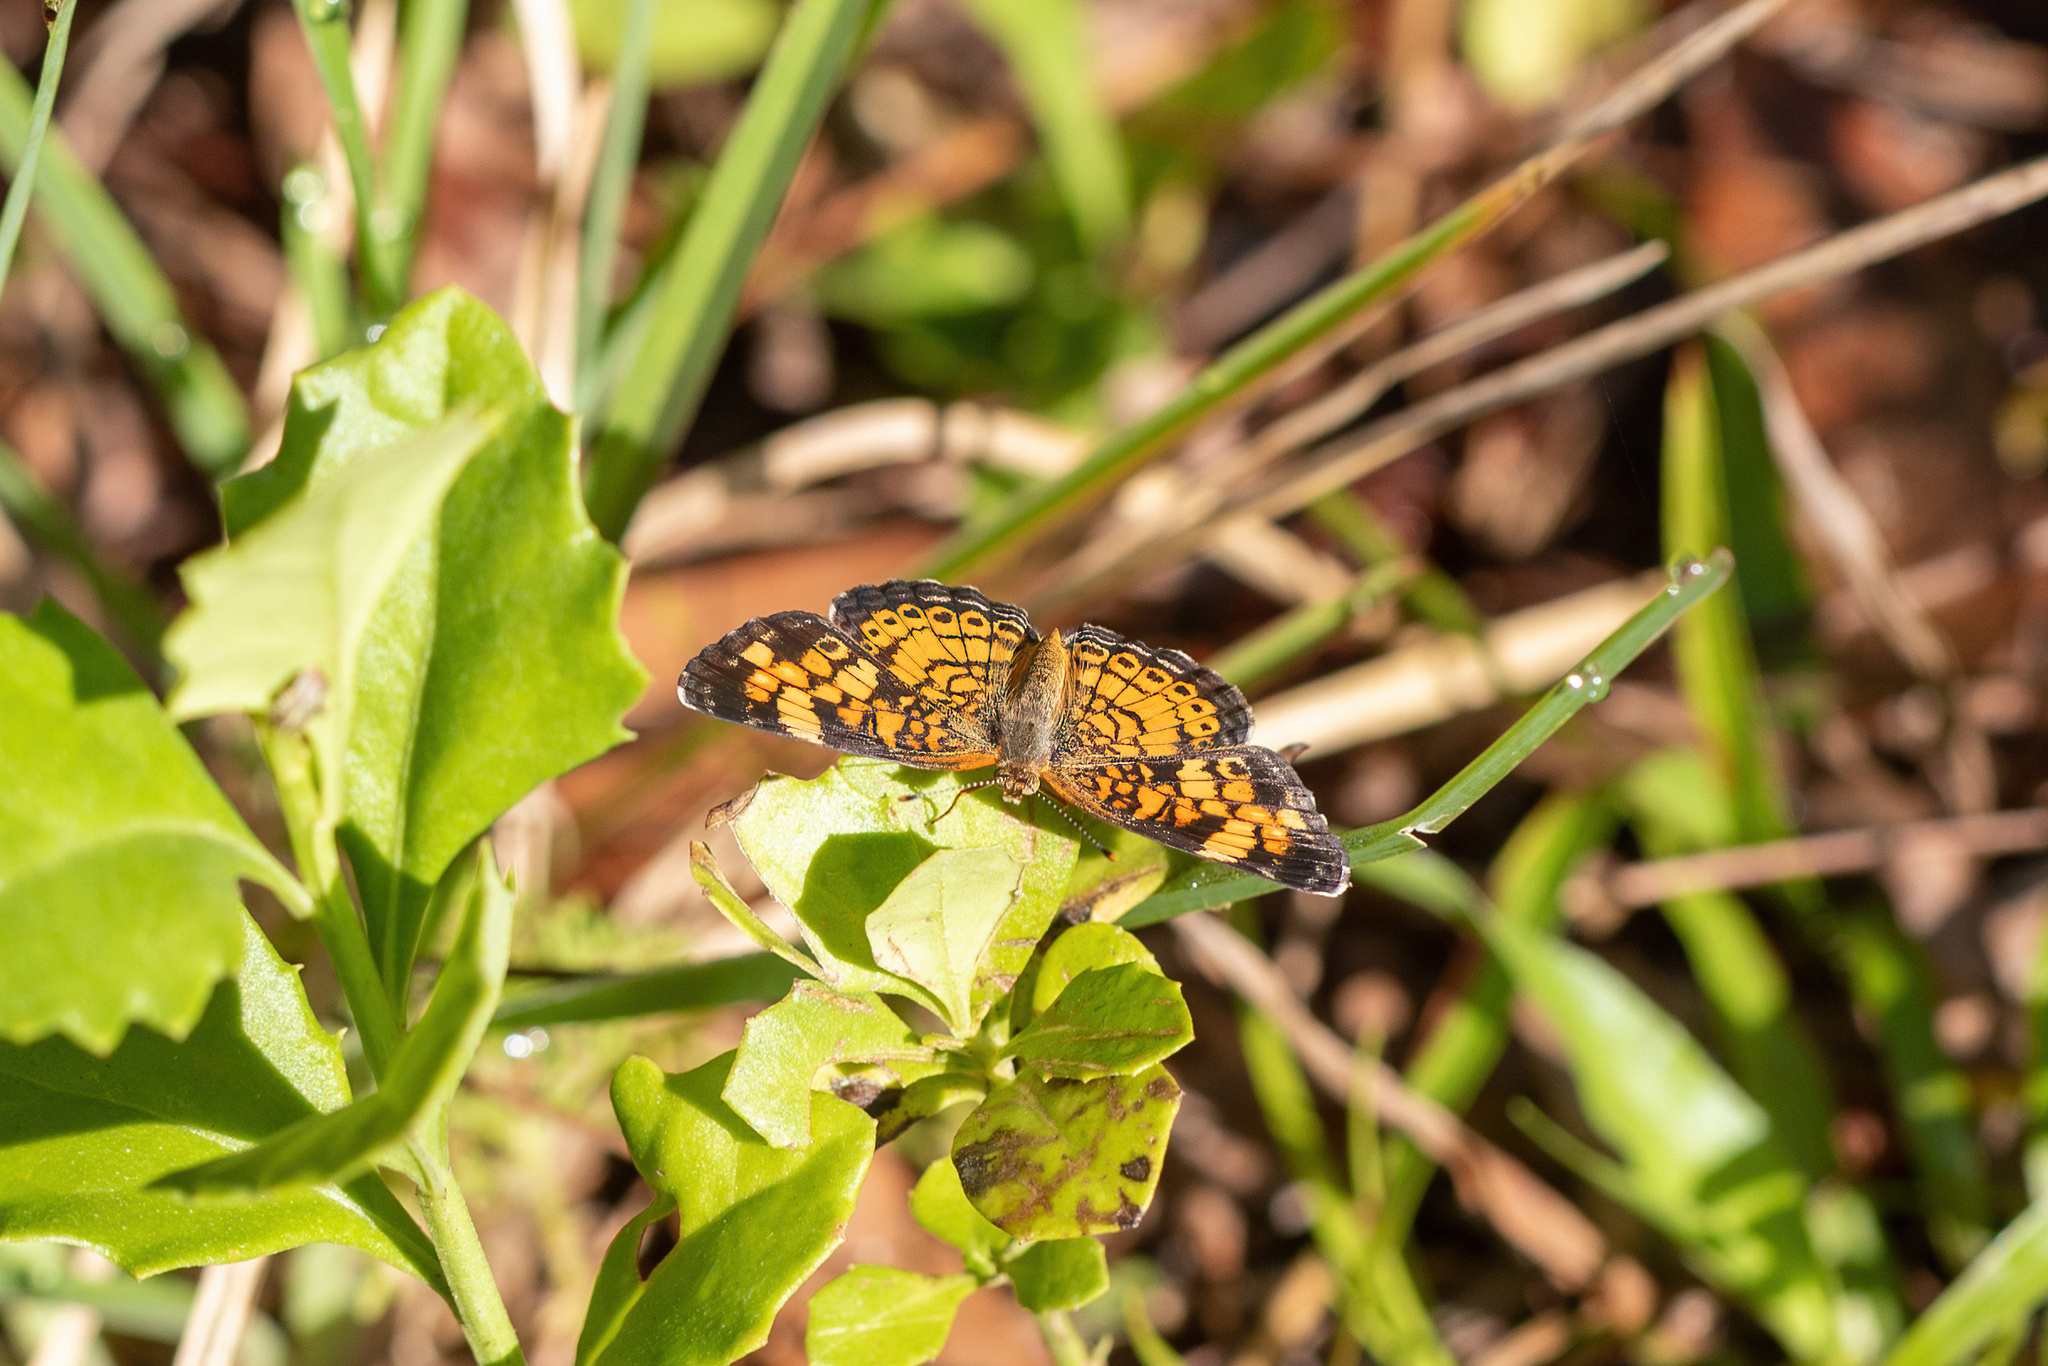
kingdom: Animalia
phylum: Arthropoda
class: Insecta
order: Lepidoptera
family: Nymphalidae
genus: Phyciodes
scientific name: Phyciodes tharos
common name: Pearl crescent
